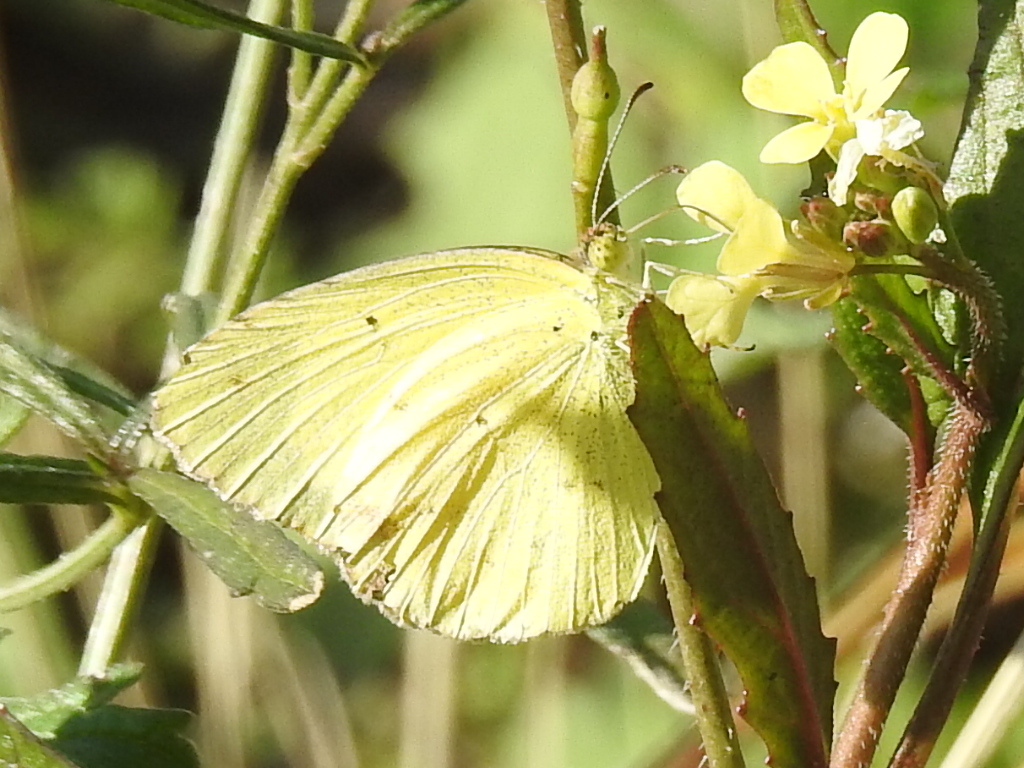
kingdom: Animalia
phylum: Arthropoda
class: Insecta
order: Lepidoptera
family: Pieridae
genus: Pyrisitia
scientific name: Pyrisitia lisa
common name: Little yellow
